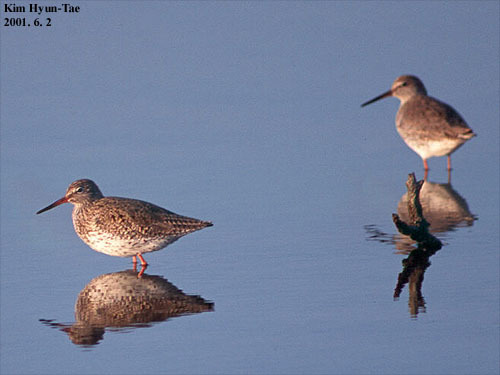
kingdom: Animalia
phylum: Chordata
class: Aves
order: Charadriiformes
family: Scolopacidae
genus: Tringa
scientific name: Tringa totanus
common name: Common redshank
